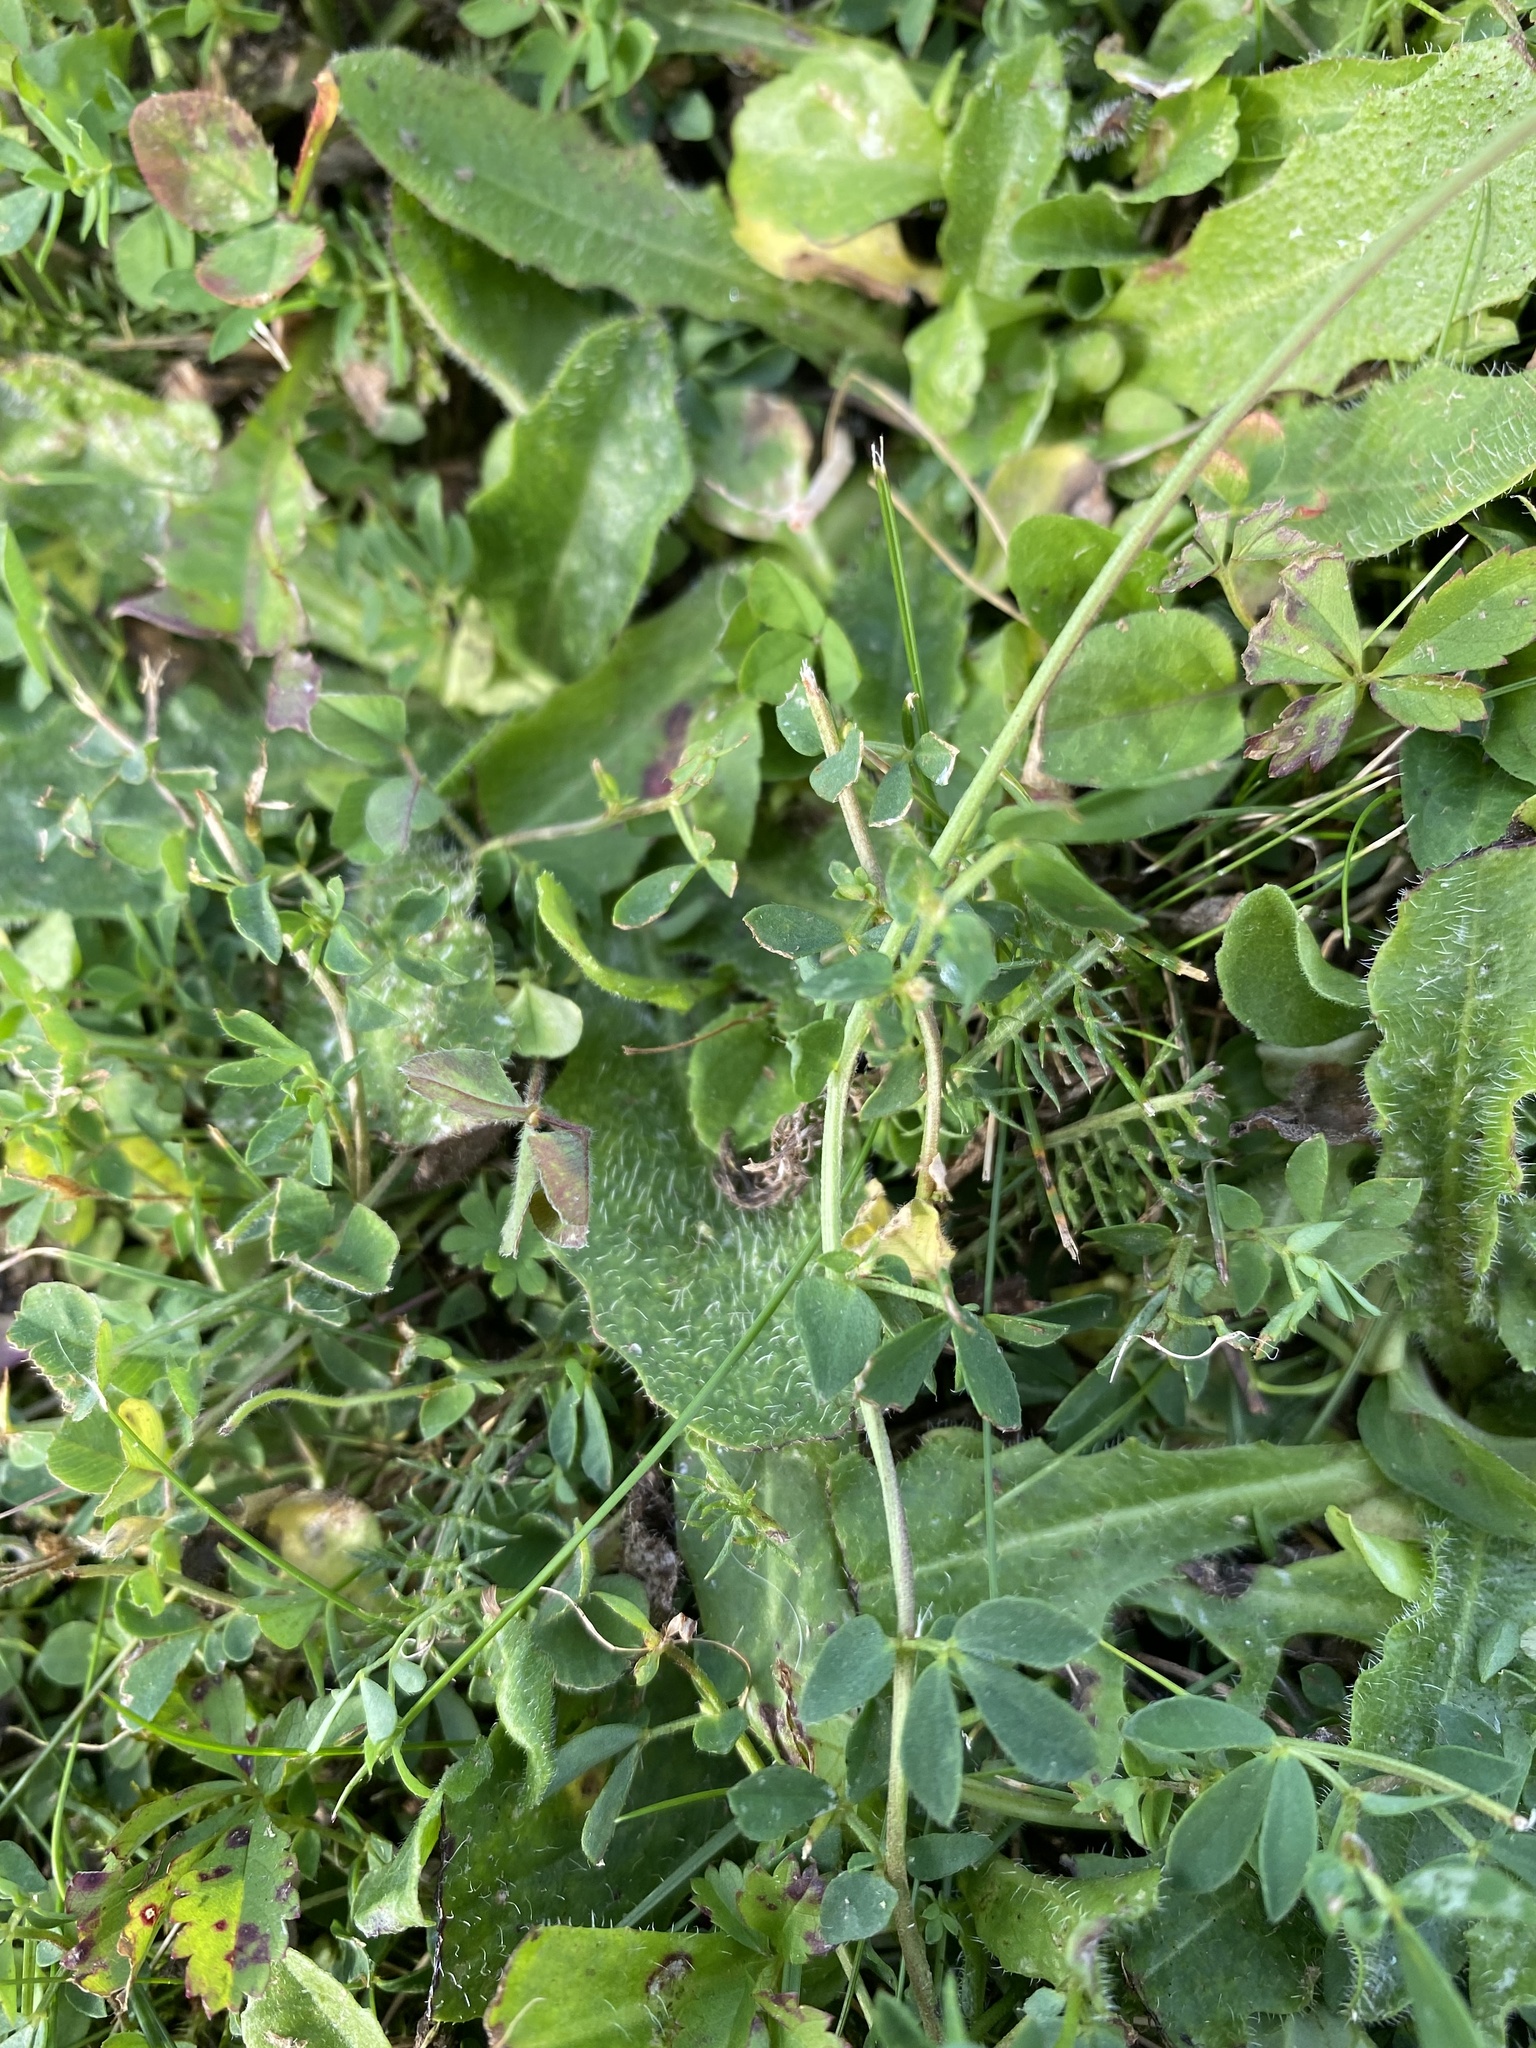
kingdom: Plantae
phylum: Tracheophyta
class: Magnoliopsida
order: Fabales
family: Fabaceae
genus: Lotus
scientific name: Lotus corniculatus
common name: Common bird's-foot-trefoil
